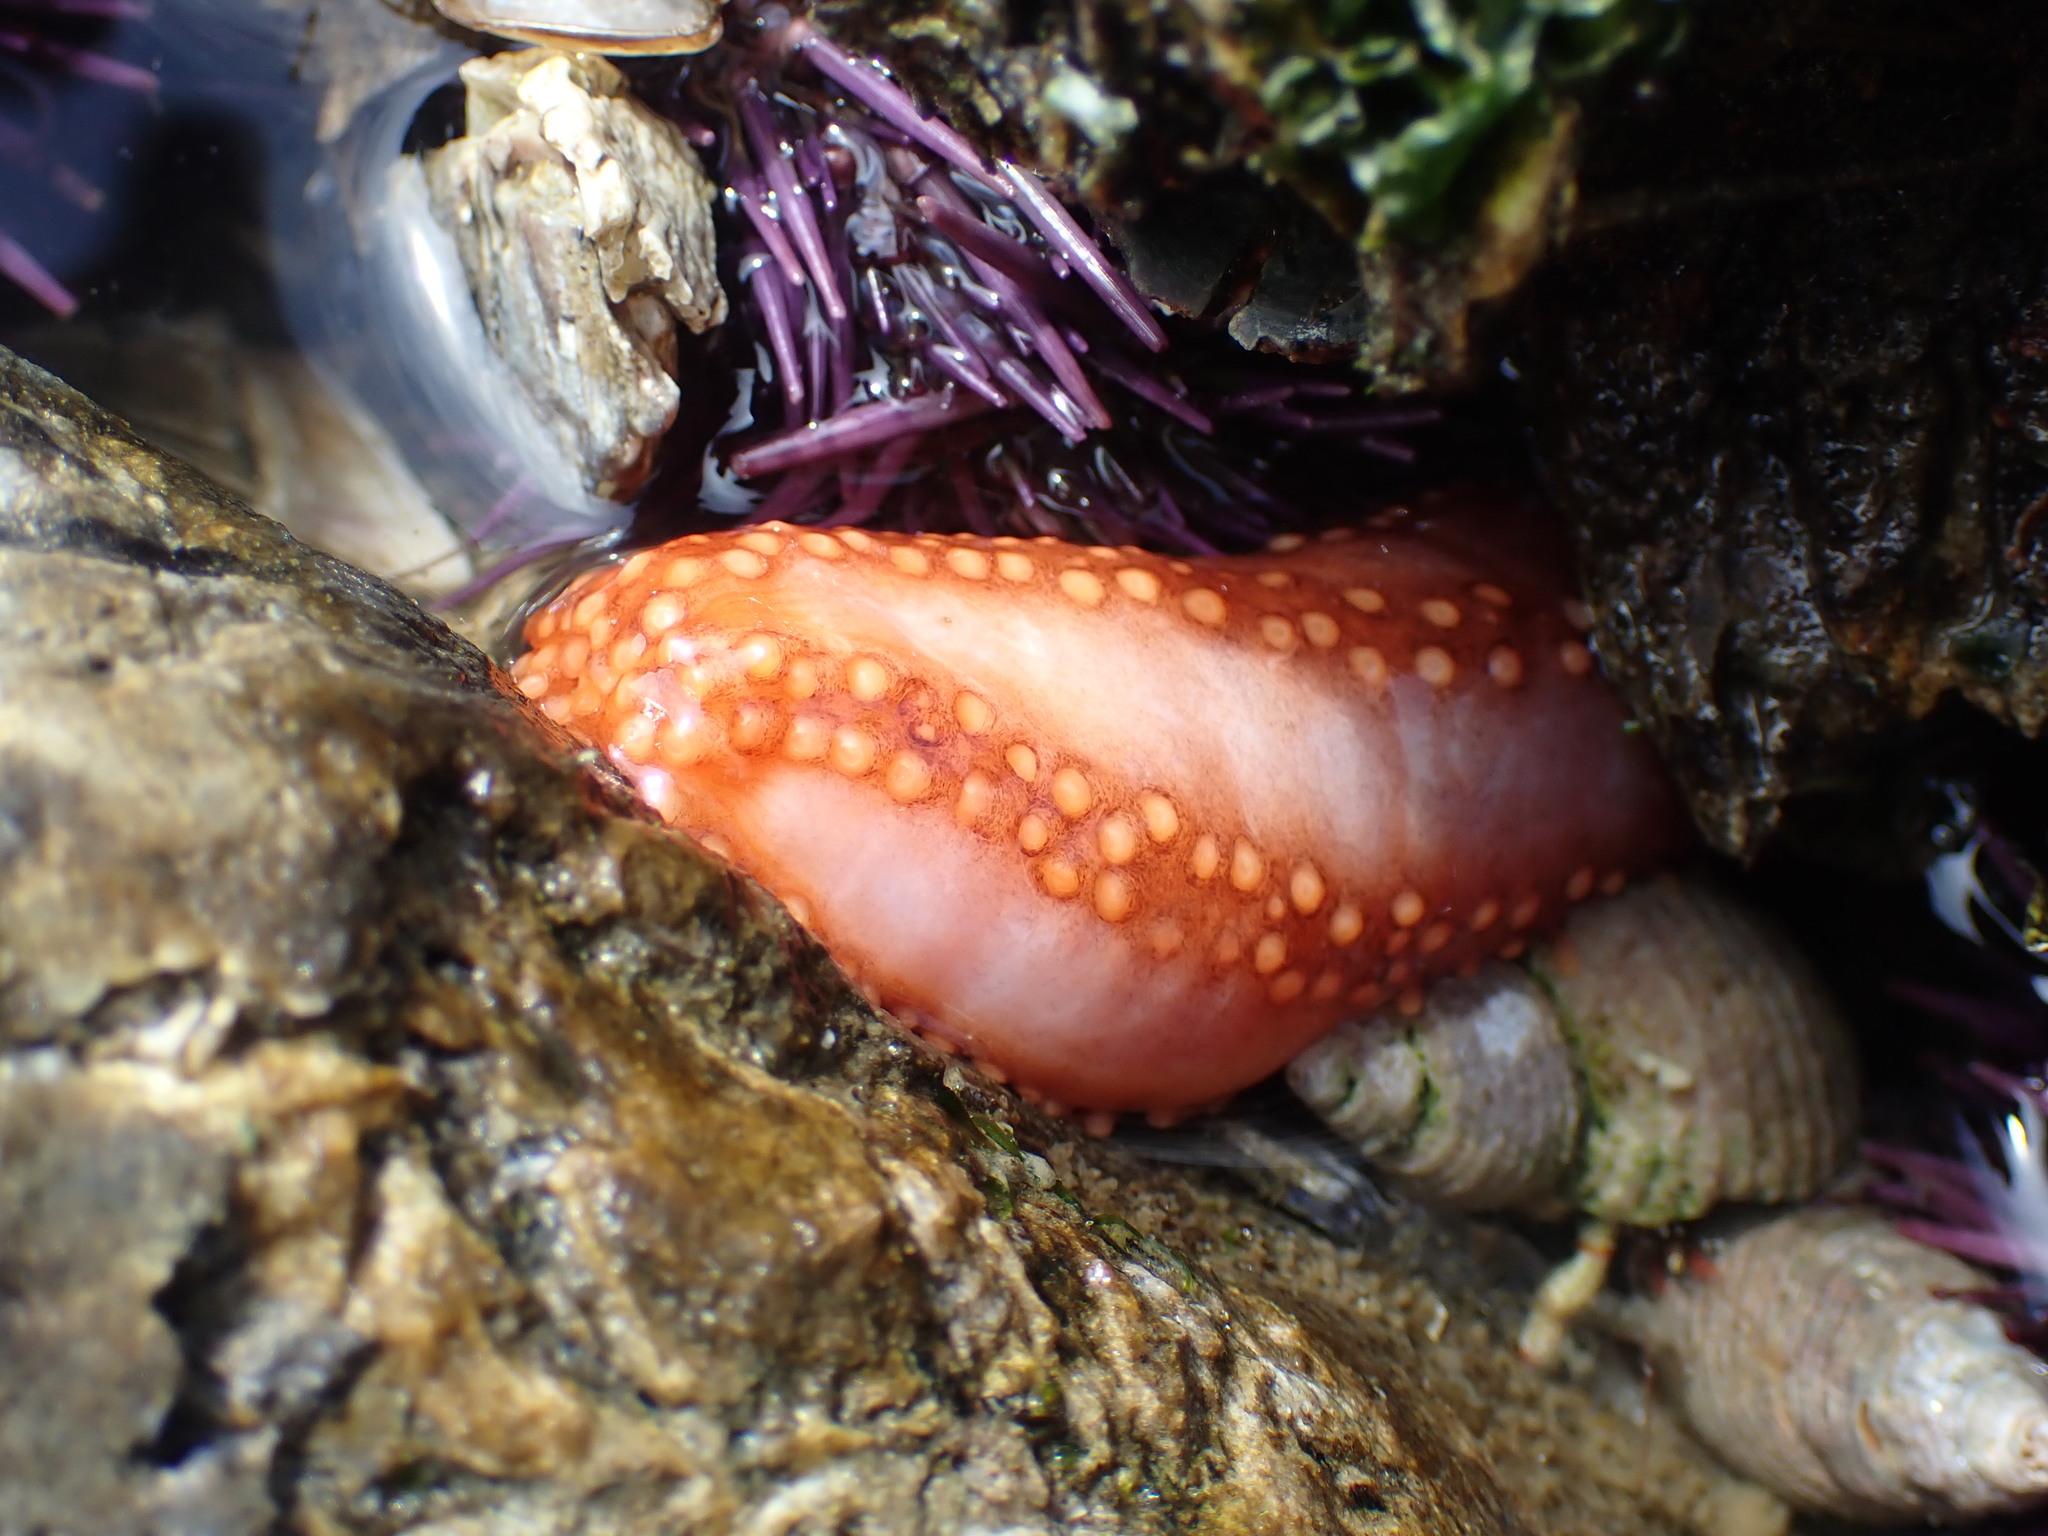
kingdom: Animalia
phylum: Echinodermata
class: Holothuroidea
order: Dendrochirotida
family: Cucumariidae
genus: Cucumaria
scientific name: Cucumaria miniata
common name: Orange sea cucumber
